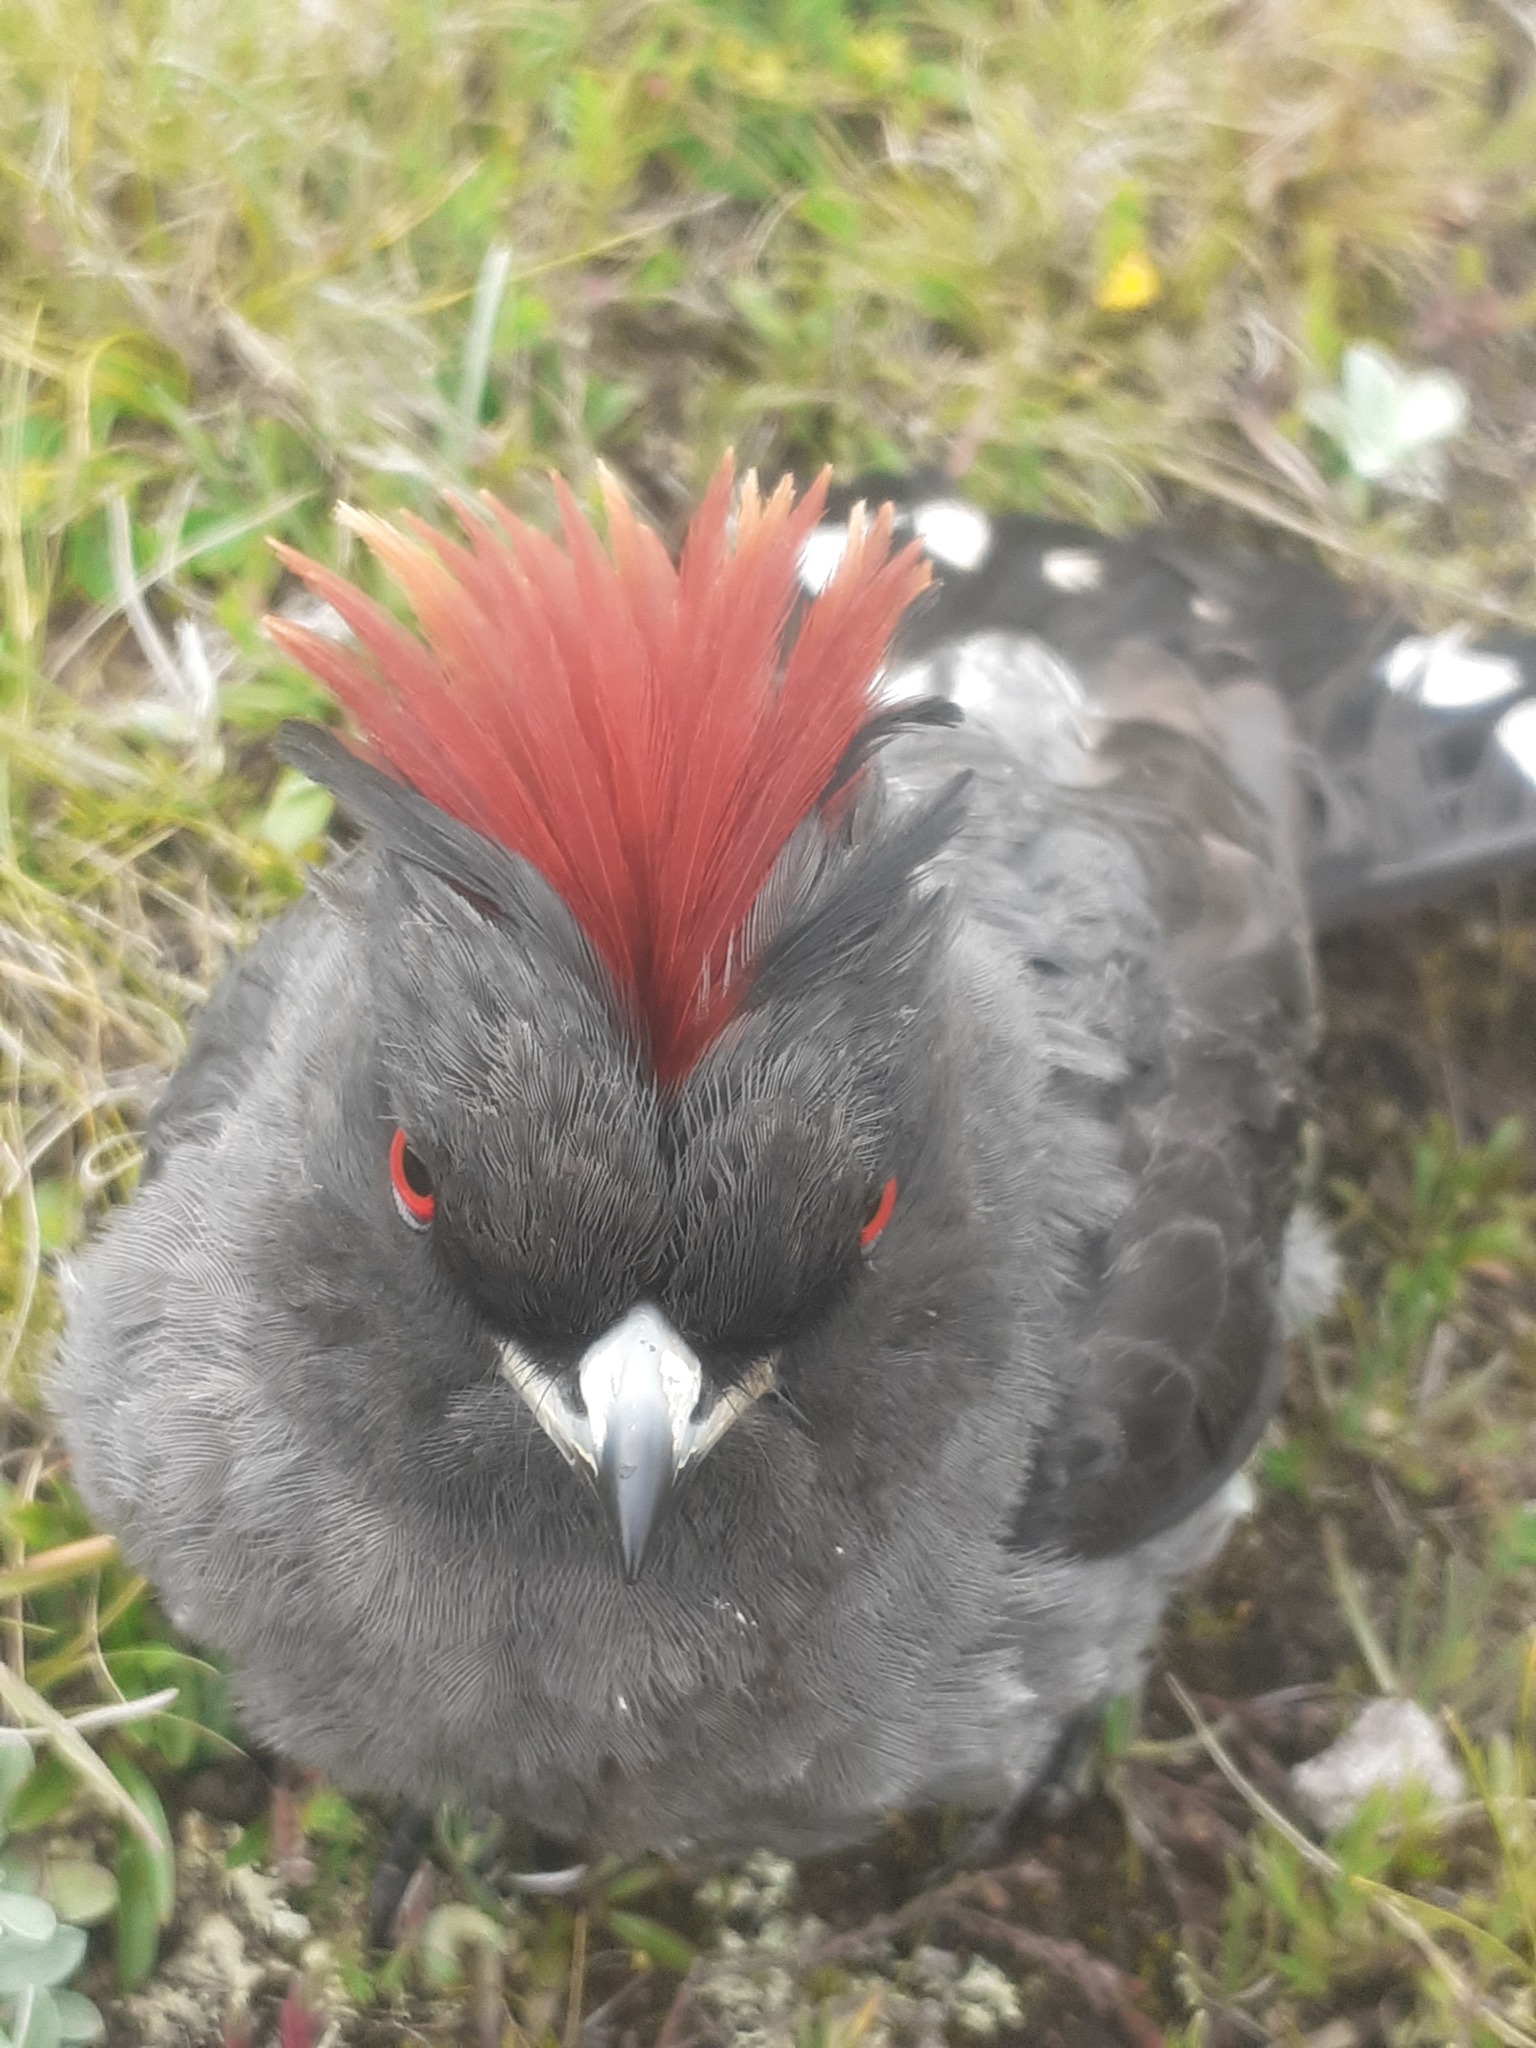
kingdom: Animalia
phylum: Chordata
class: Aves
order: Passeriformes
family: Cotingidae
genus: Ampelion
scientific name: Ampelion rubrocristatus
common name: Red-crested cotinga
